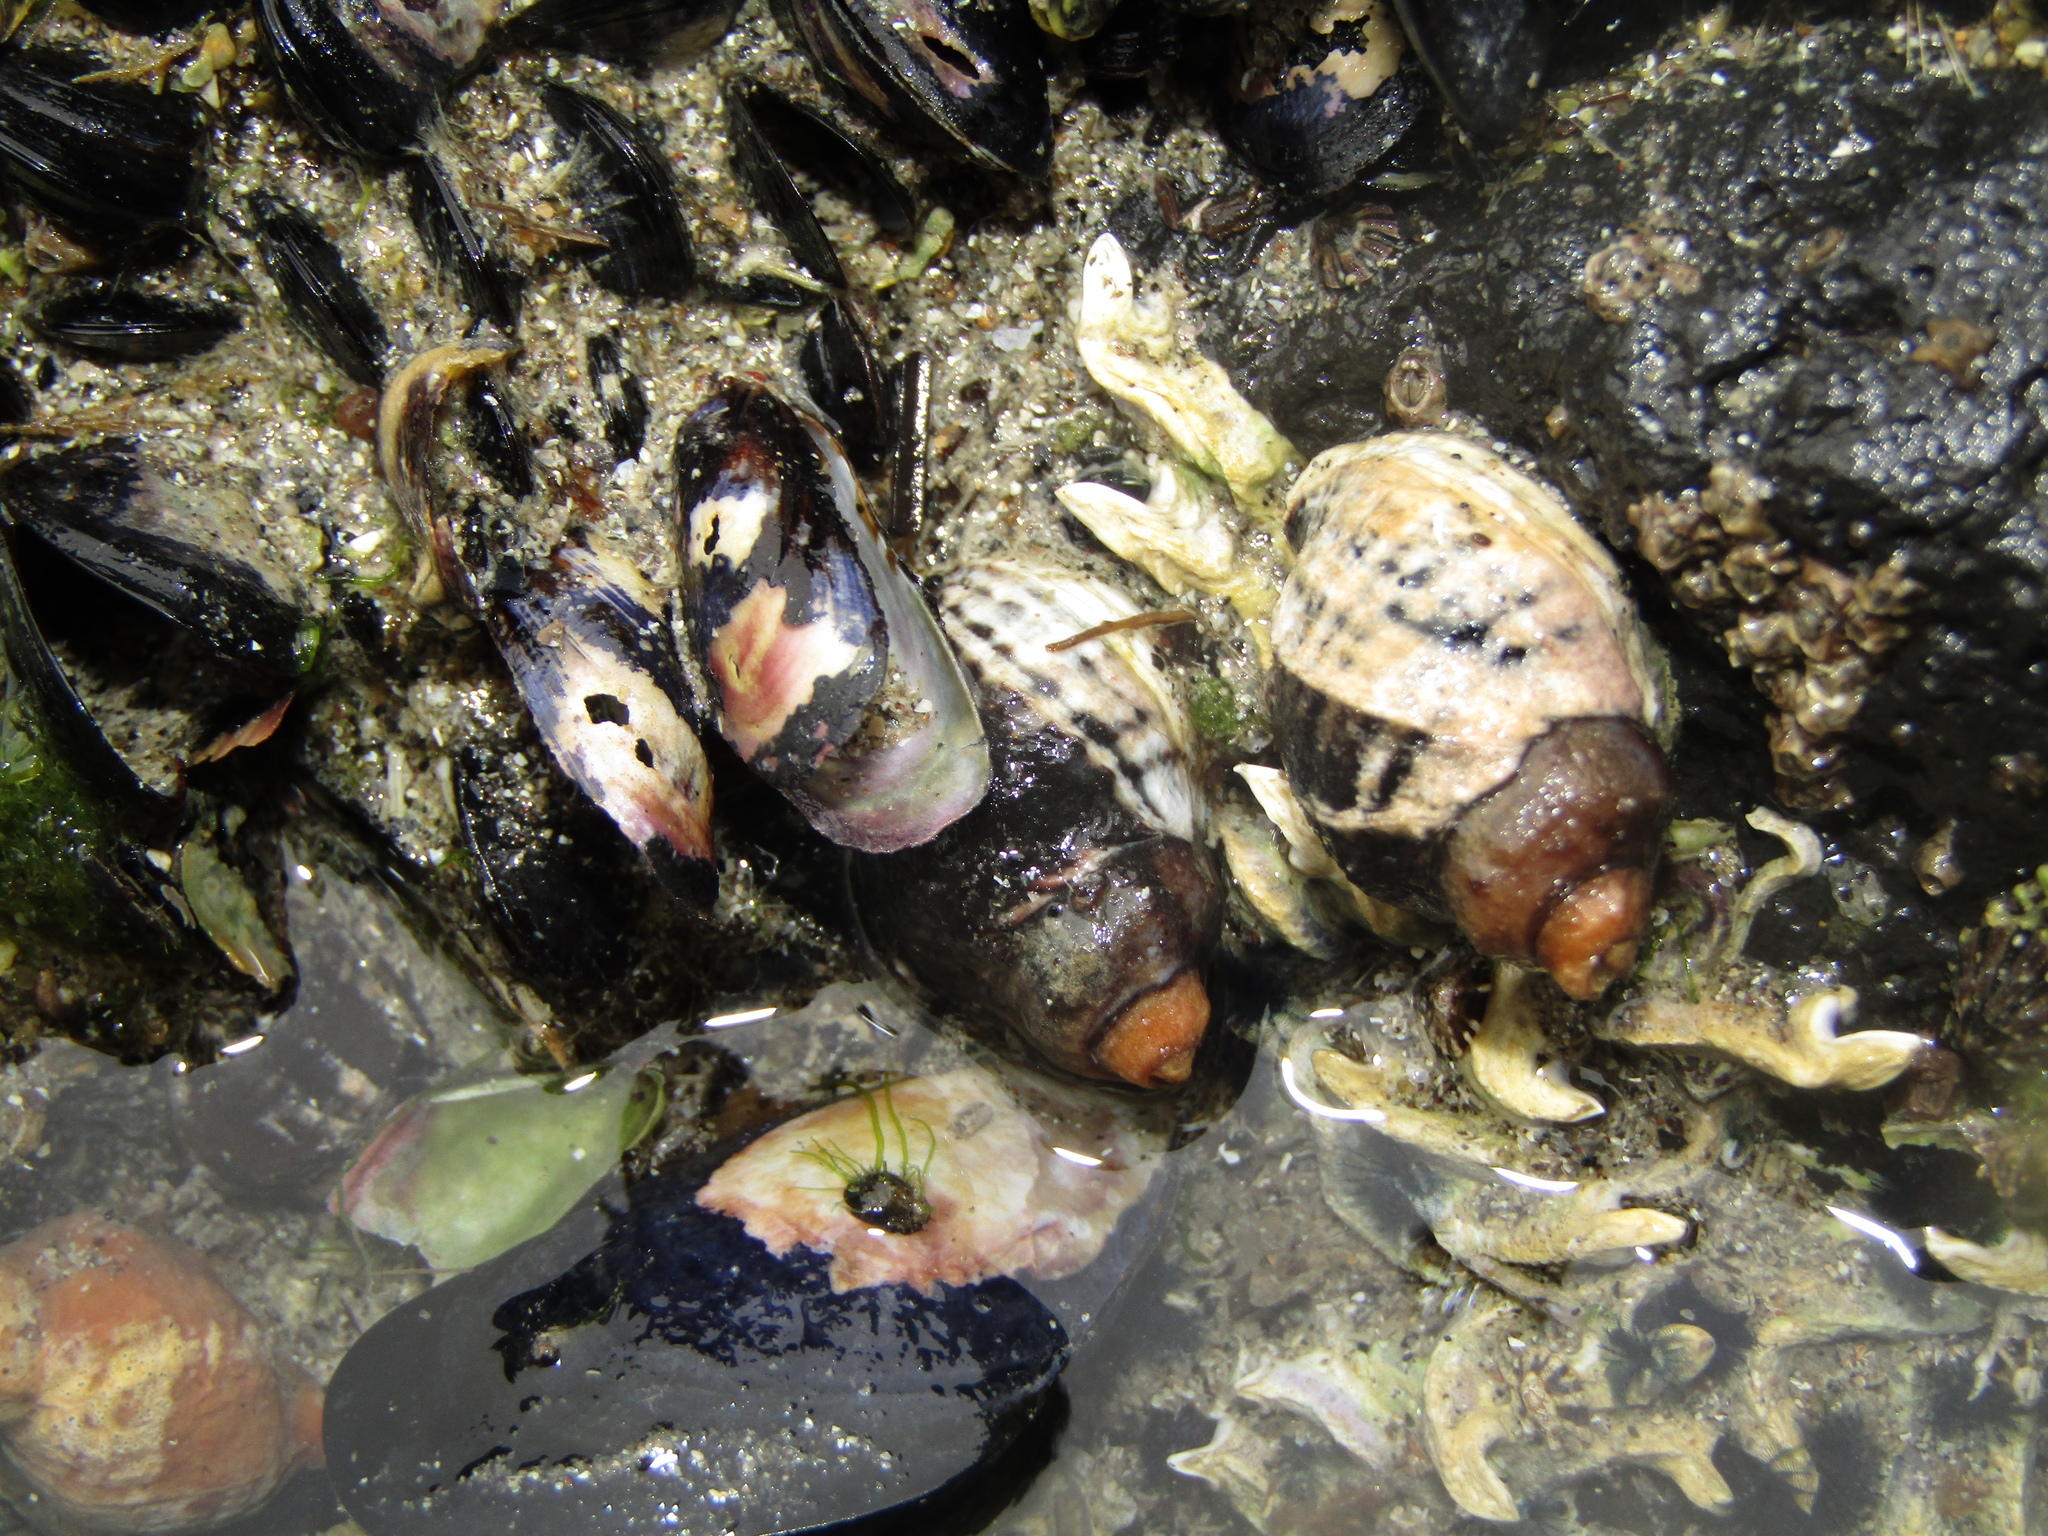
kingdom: Animalia
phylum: Mollusca
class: Gastropoda
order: Neogastropoda
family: Muricidae
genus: Haustrum
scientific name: Haustrum albomarginatum
